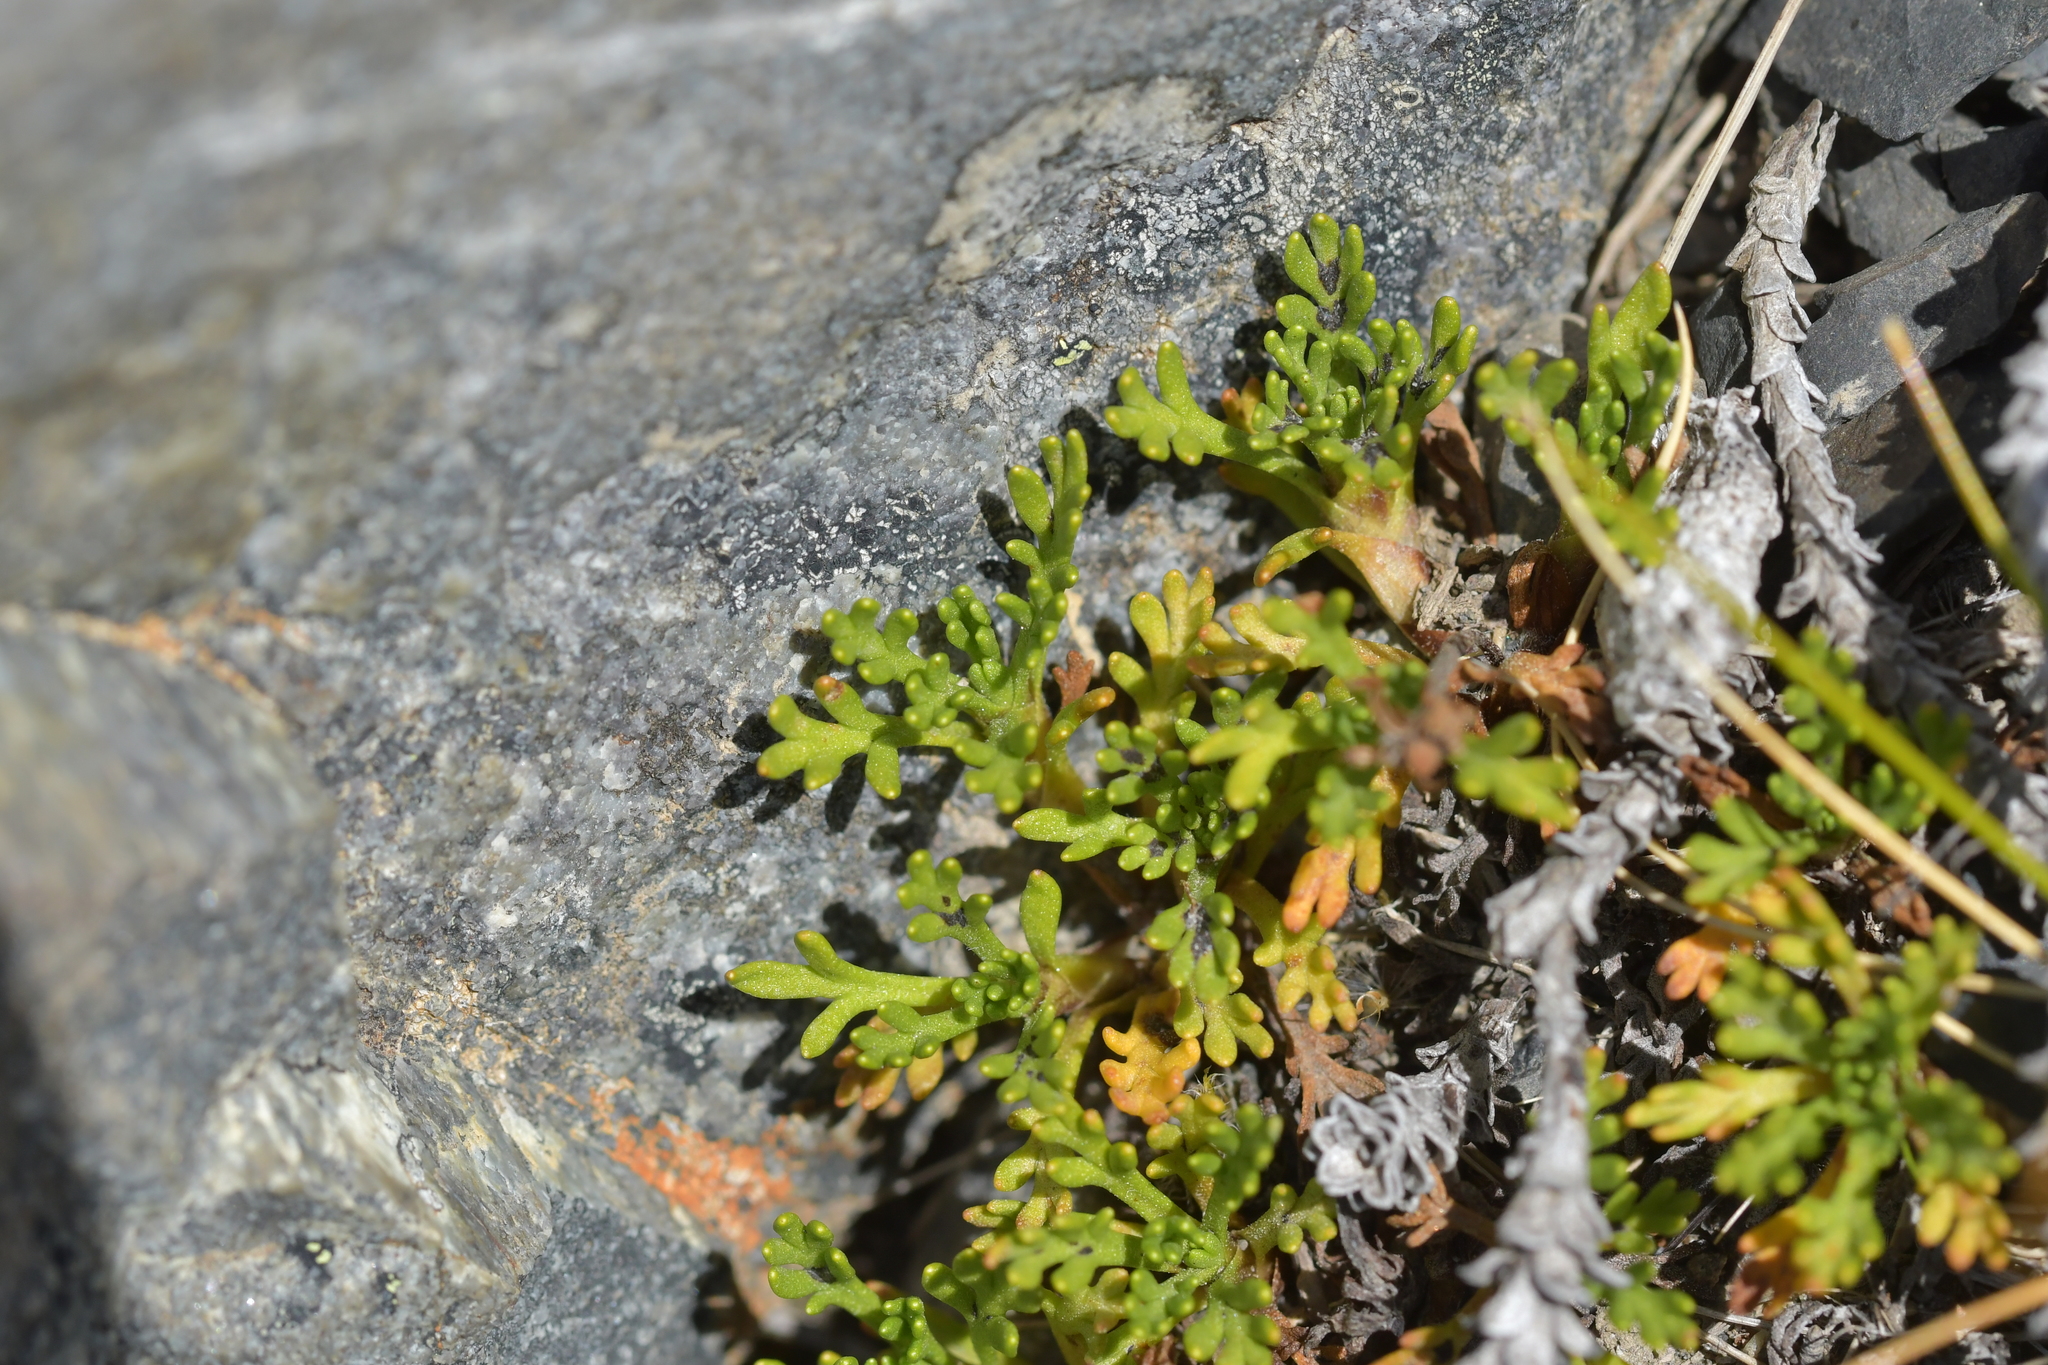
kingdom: Plantae
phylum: Tracheophyta
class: Magnoliopsida
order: Asterales
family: Asteraceae
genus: Leptinella
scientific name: Leptinella pyrethrifolia
